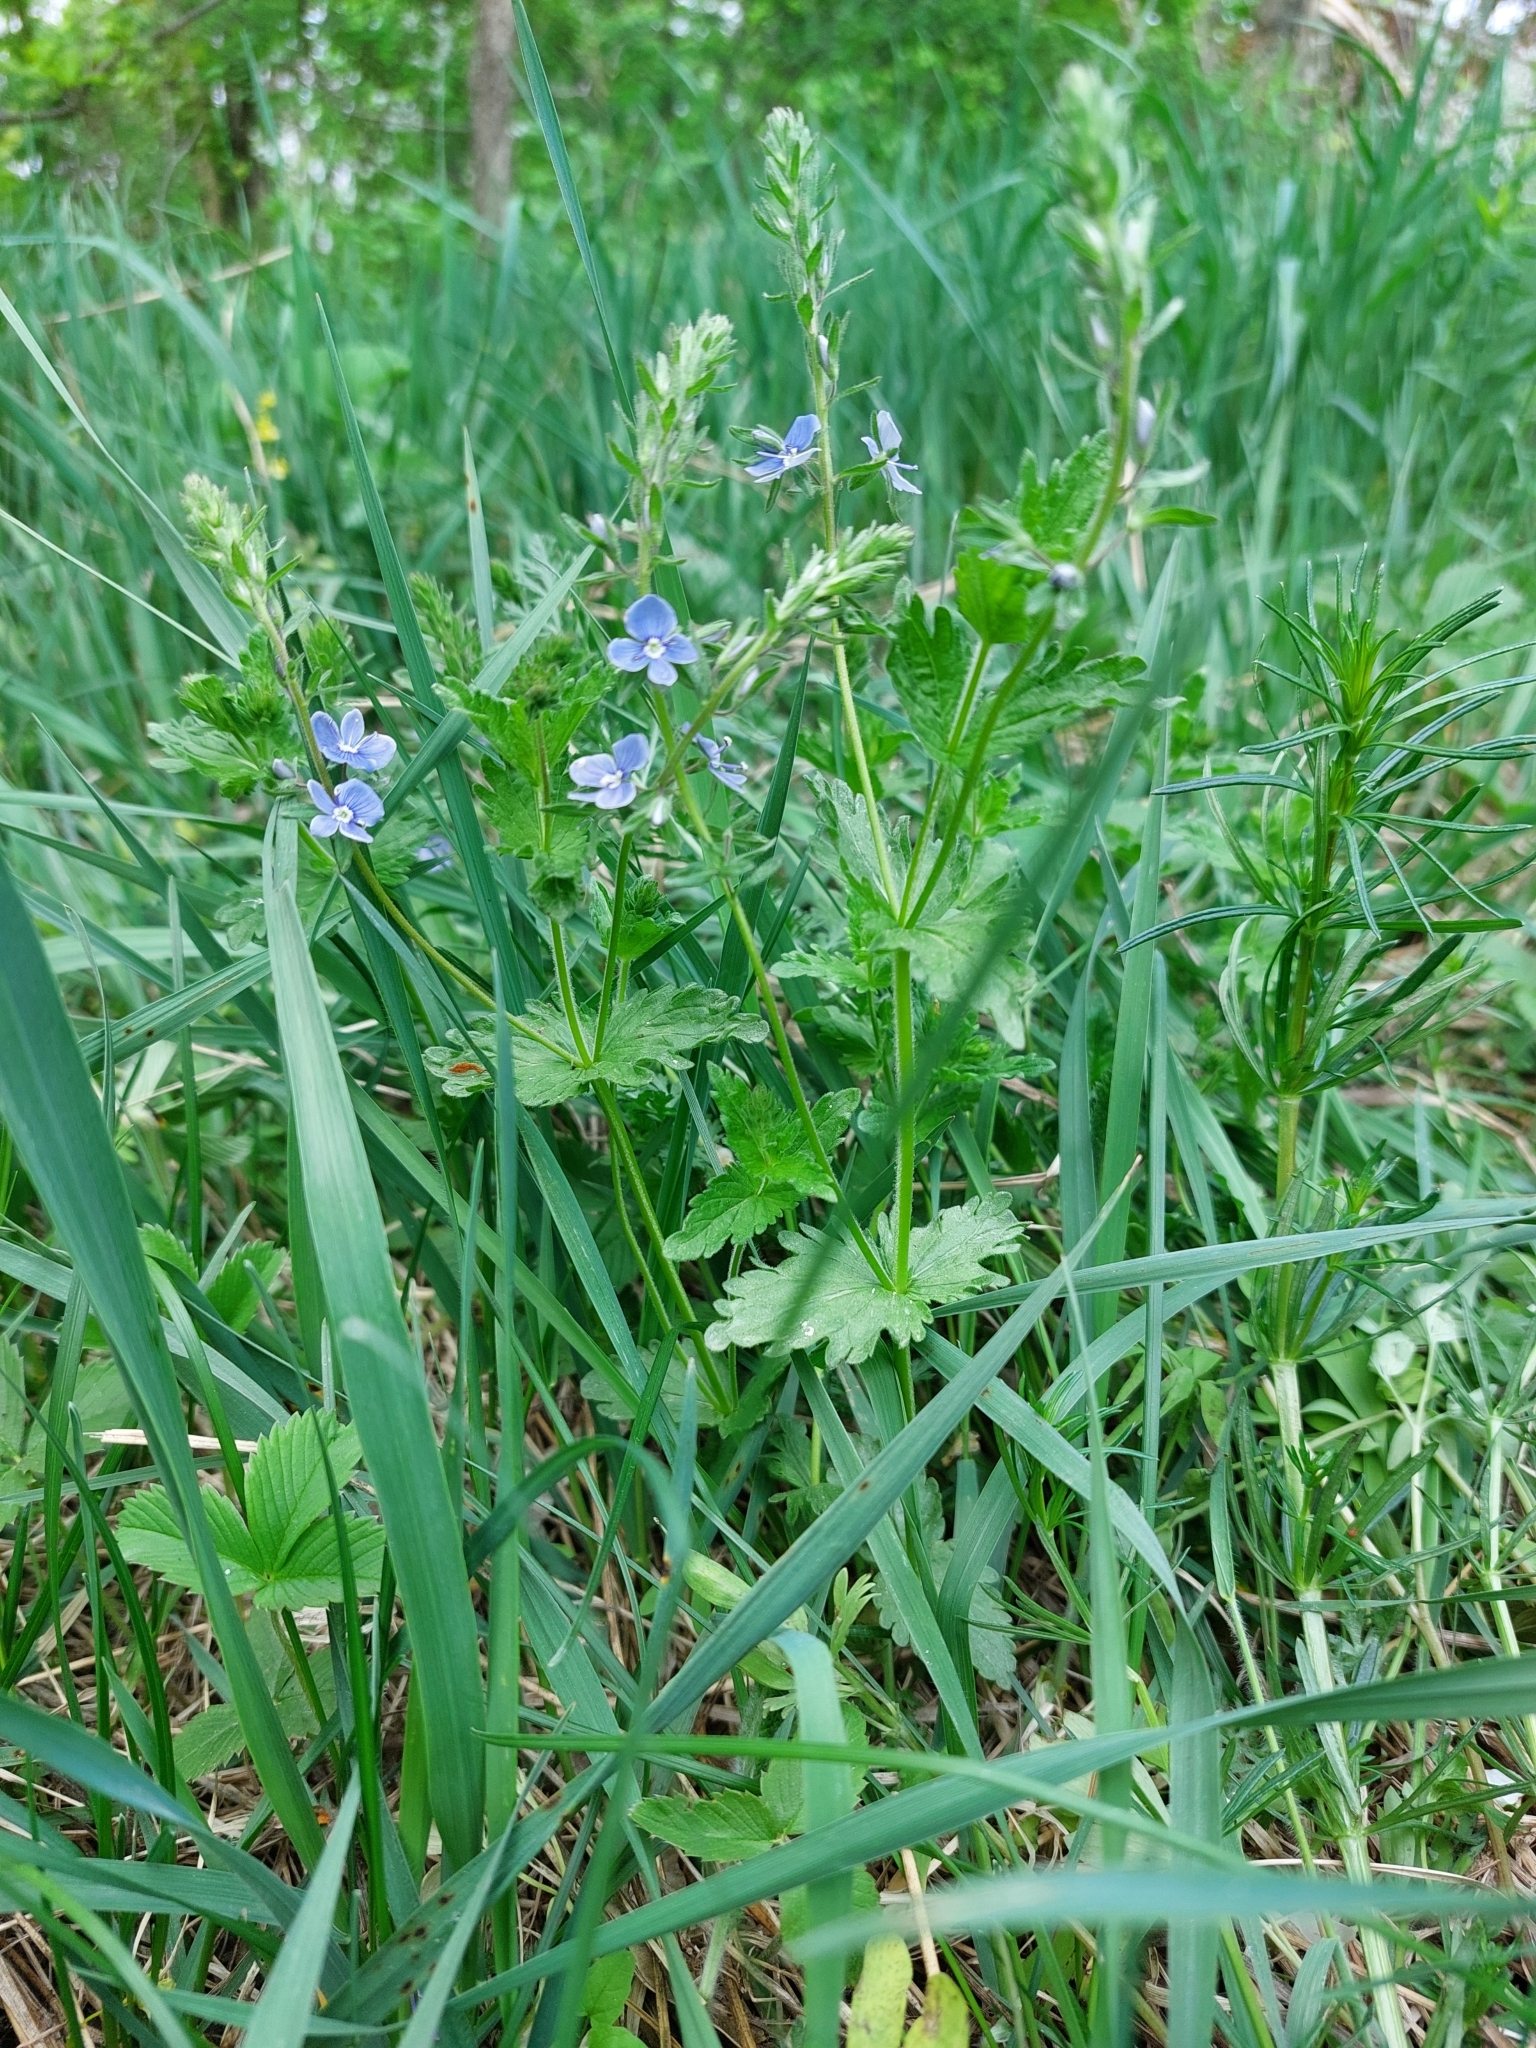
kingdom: Plantae
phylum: Tracheophyta
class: Magnoliopsida
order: Lamiales
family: Plantaginaceae
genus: Veronica
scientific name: Veronica chamaedrys
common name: Germander speedwell
